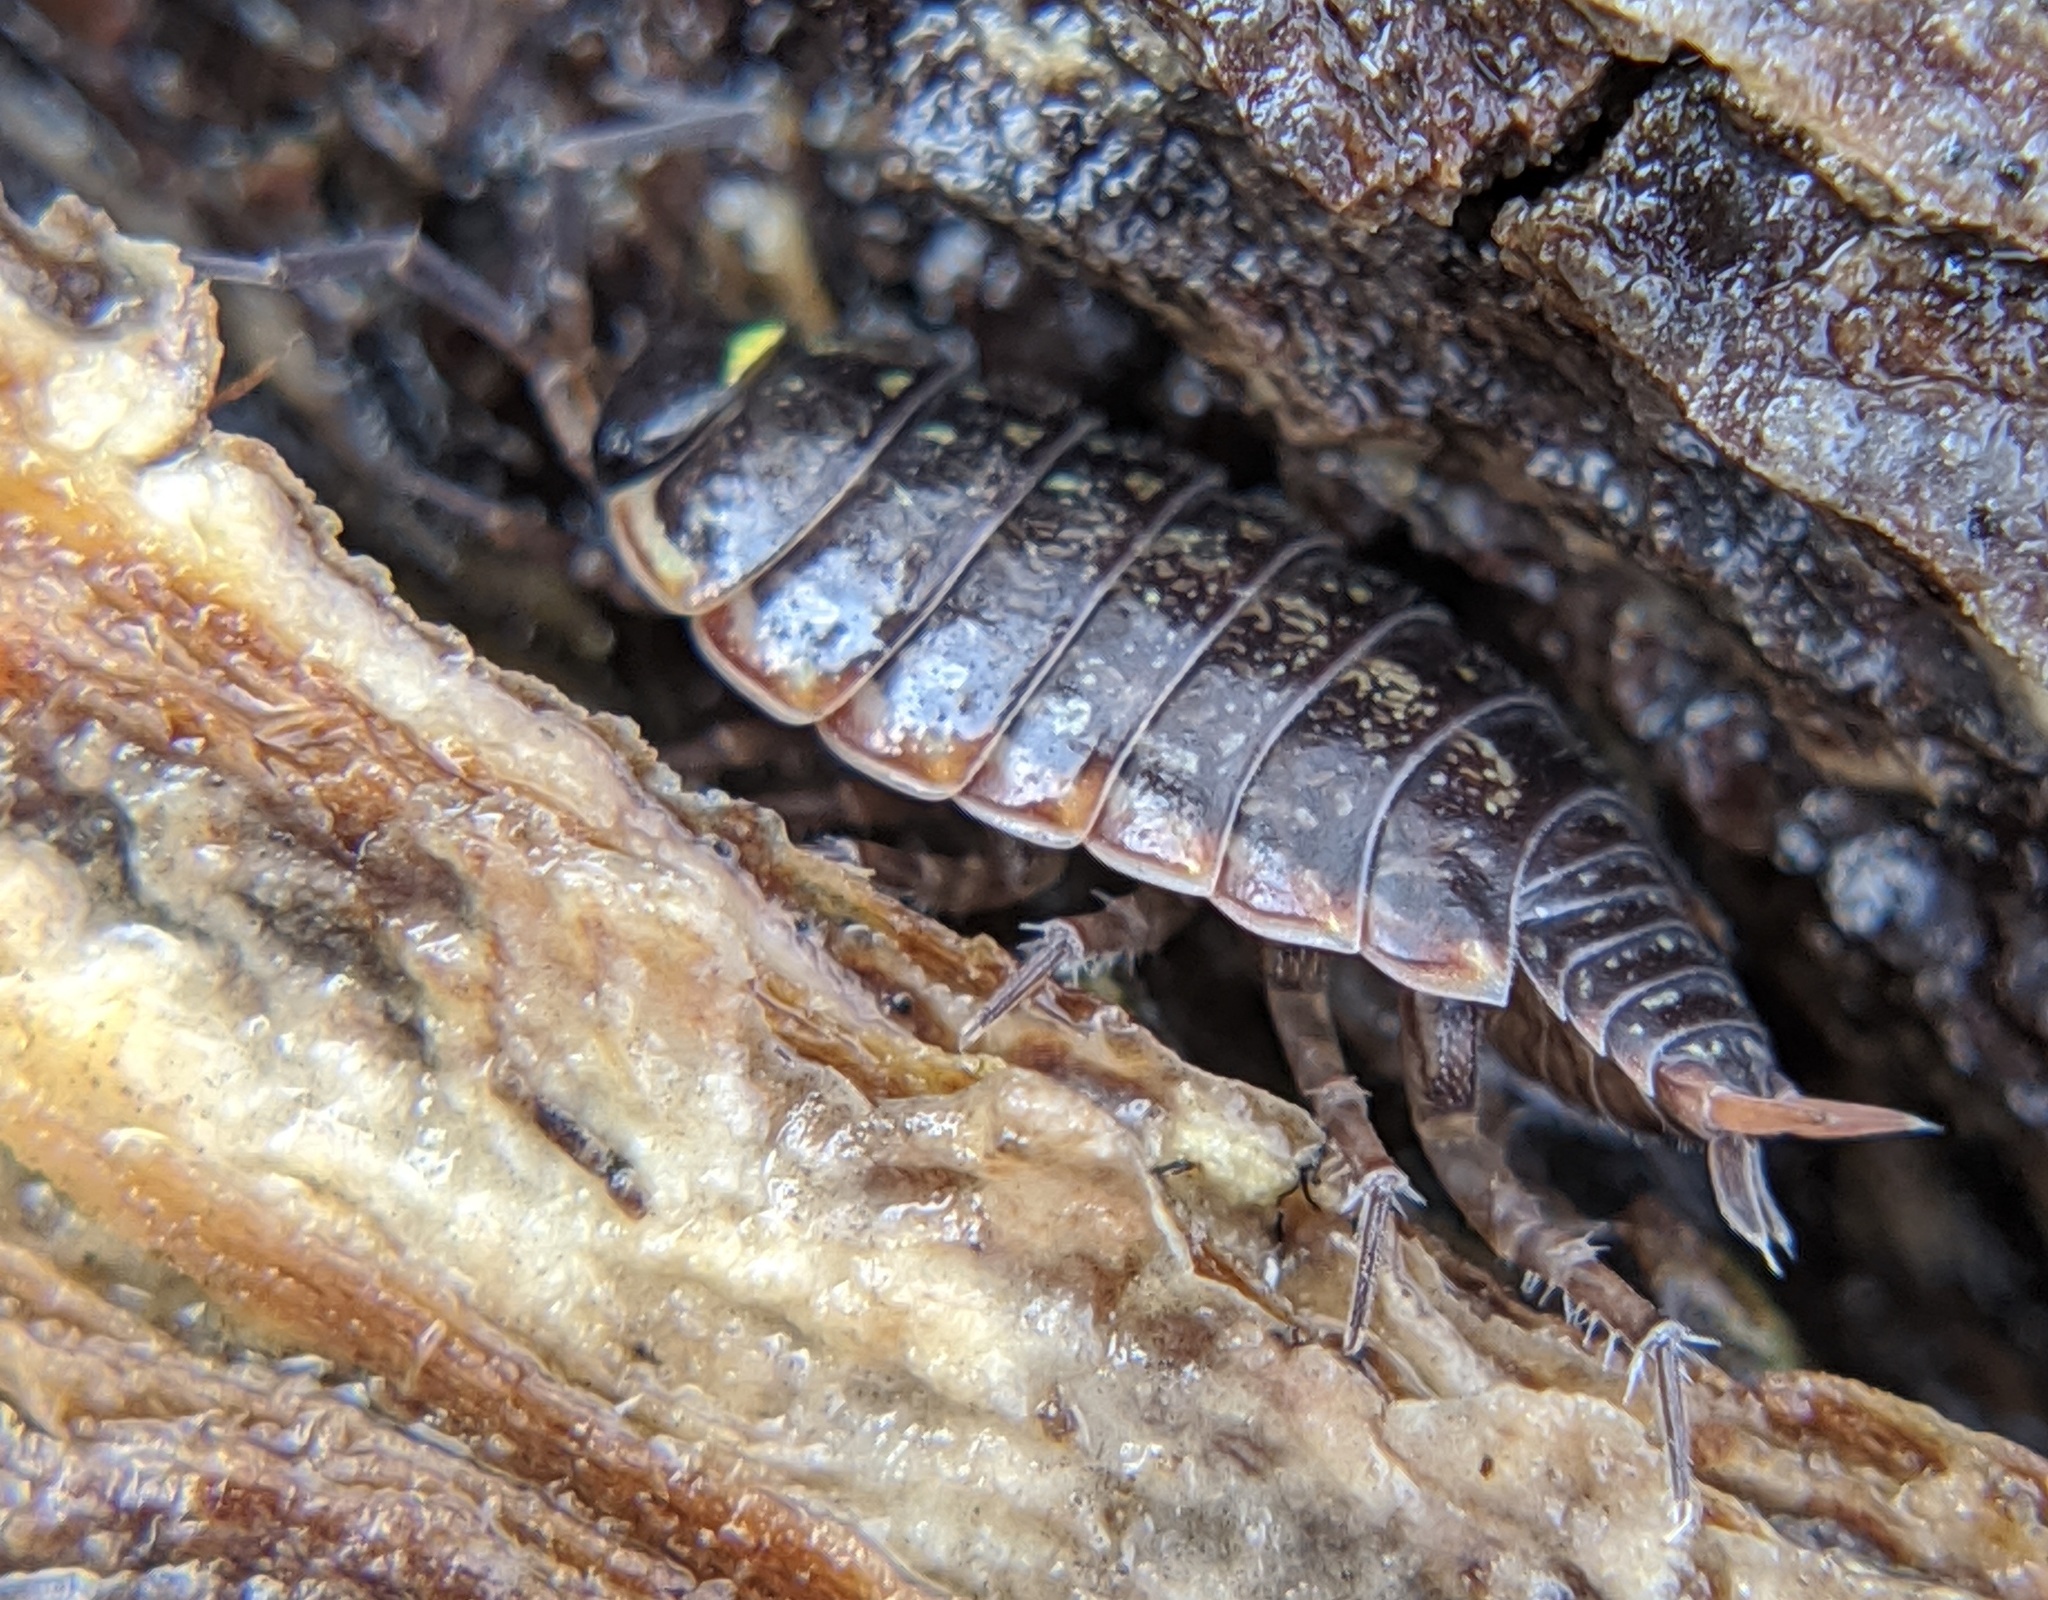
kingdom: Animalia
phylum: Arthropoda
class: Malacostraca
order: Isopoda
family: Philosciidae
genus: Philoscia
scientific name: Philoscia muscorum
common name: Common striped woodlouse
